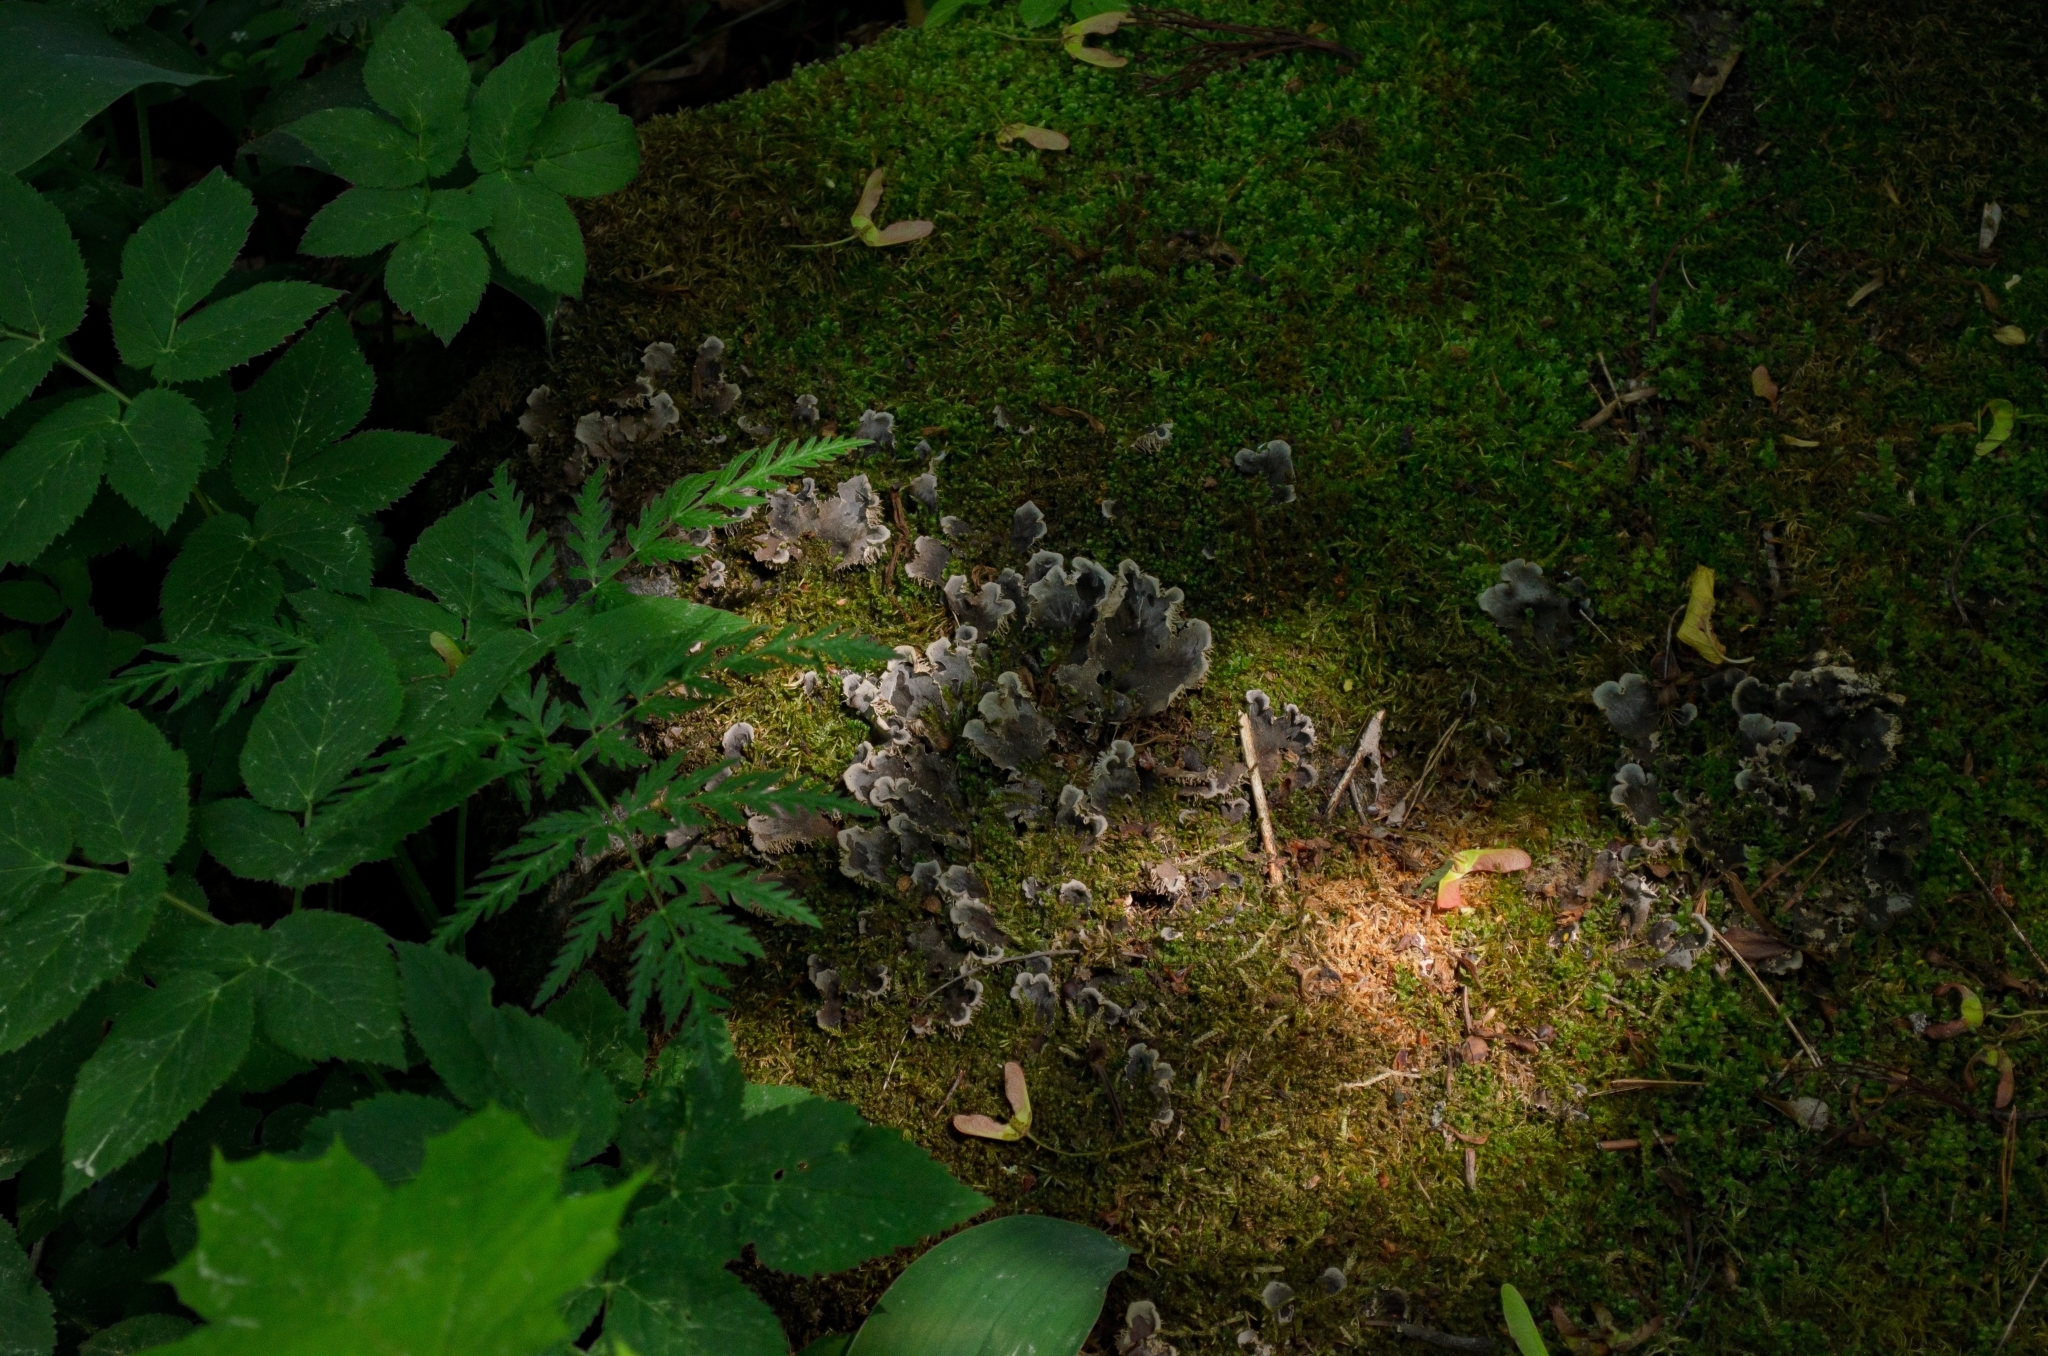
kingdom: Fungi
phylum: Ascomycota
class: Lecanoromycetes
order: Peltigerales
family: Peltigeraceae
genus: Peltigera
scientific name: Peltigera
